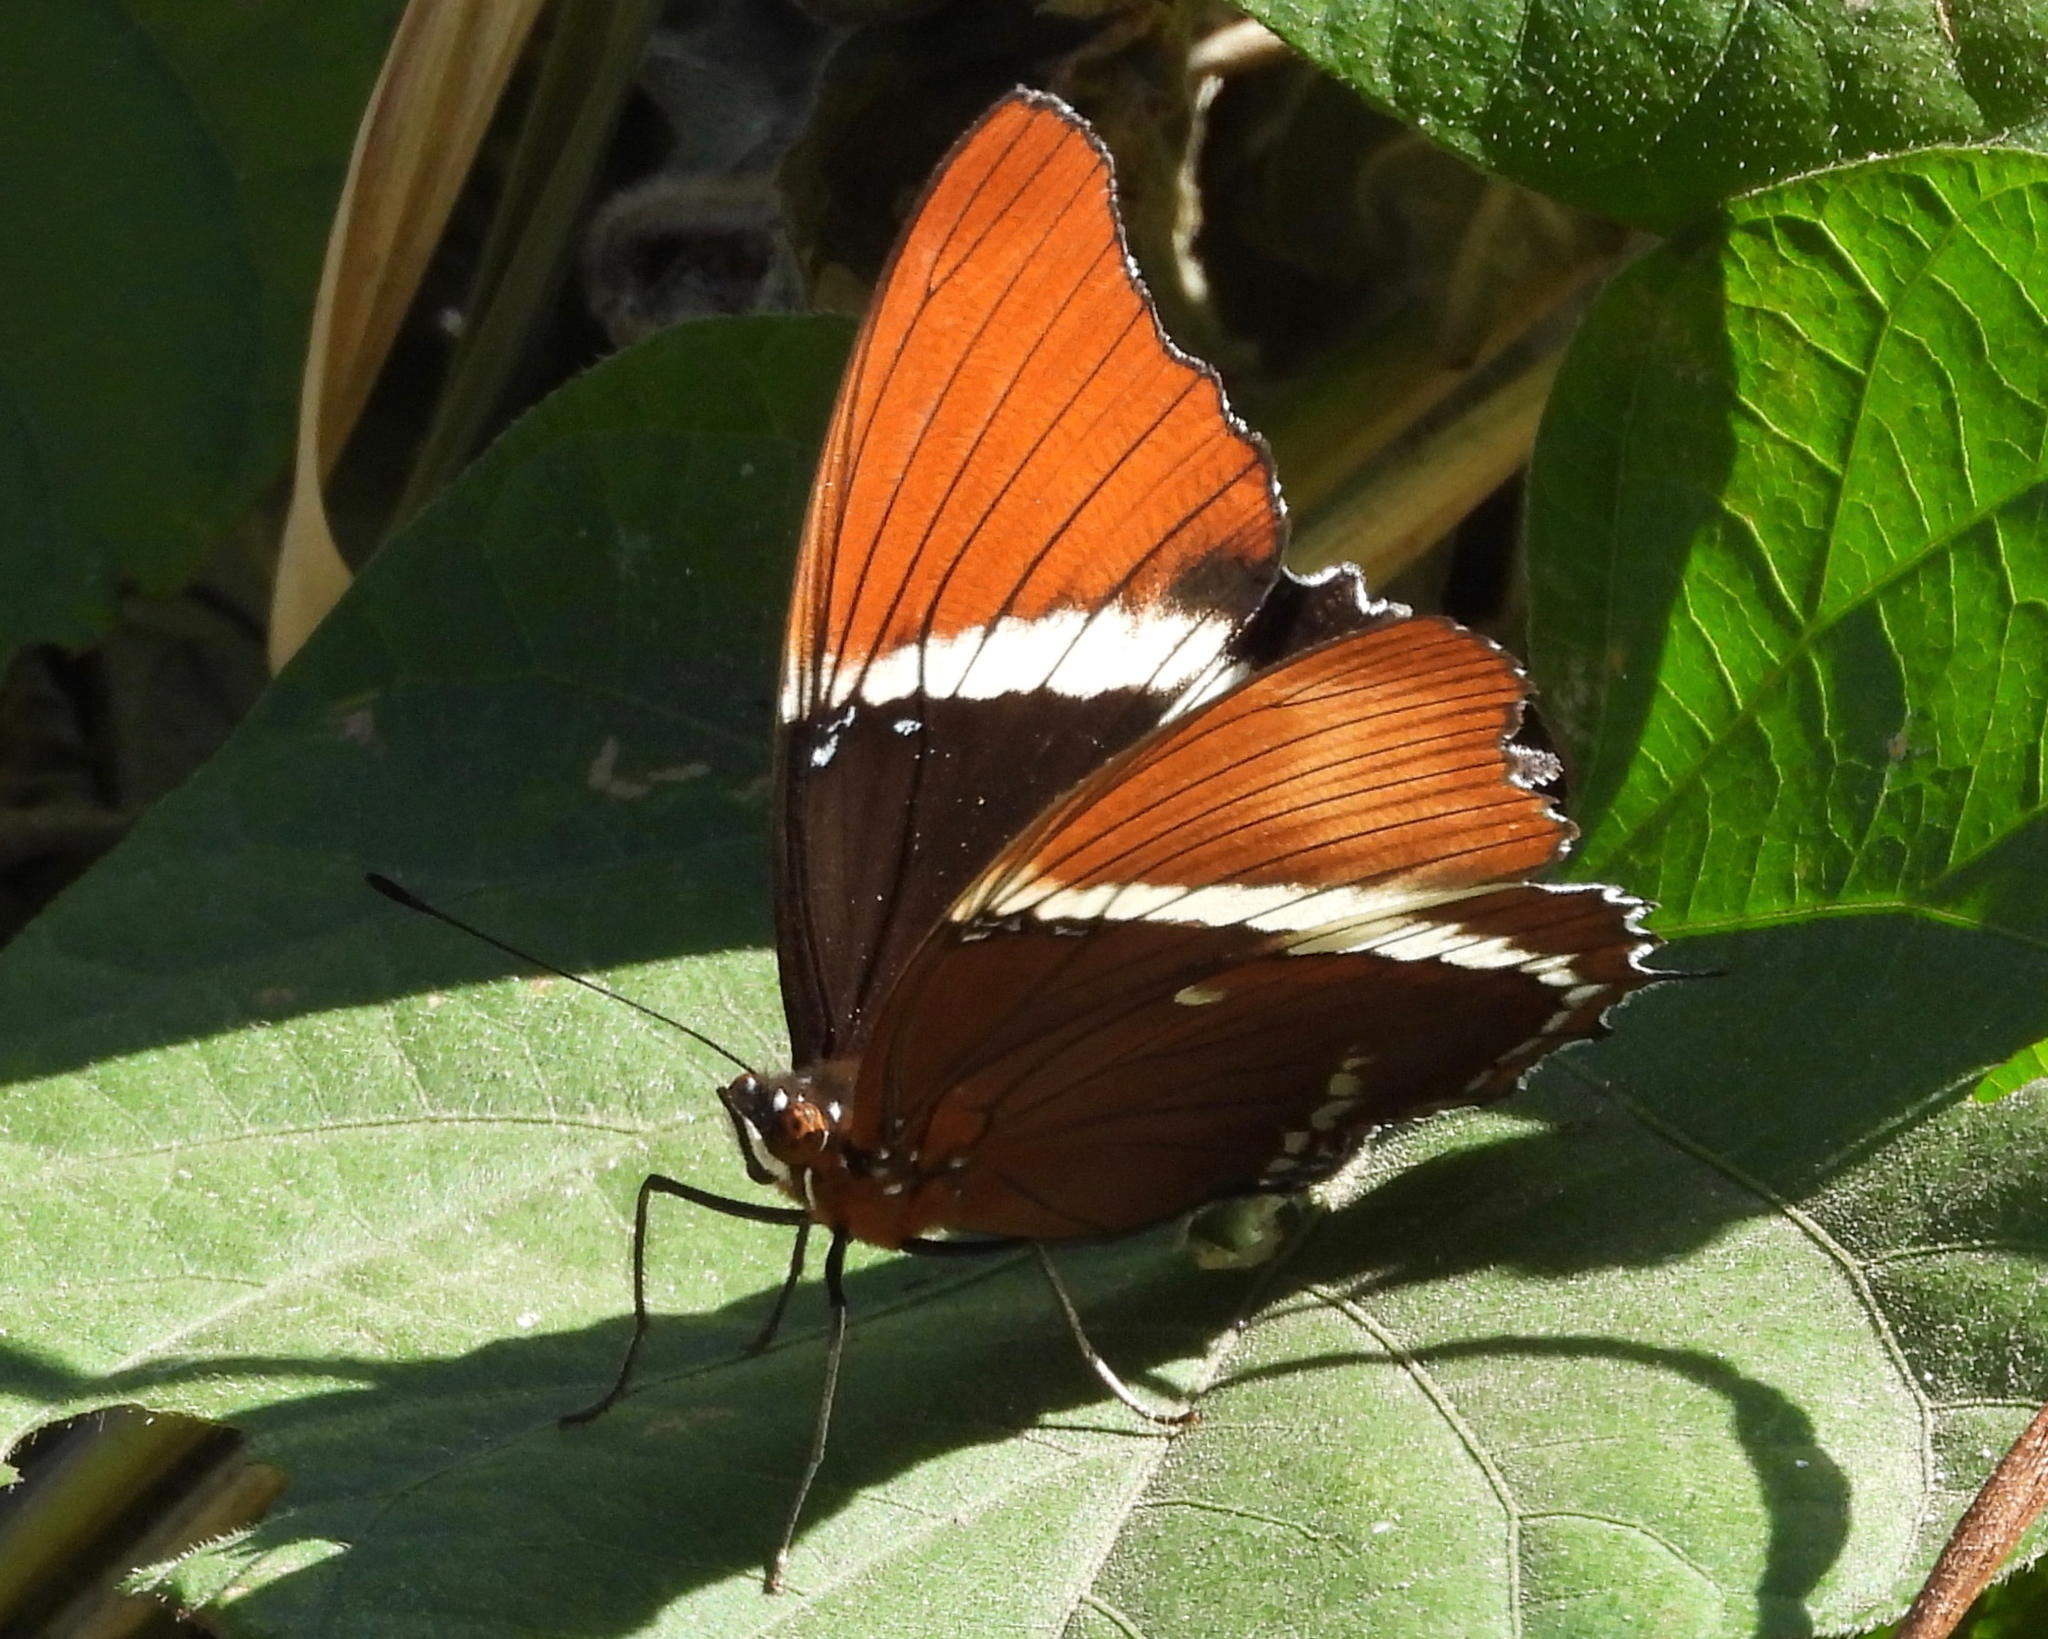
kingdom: Animalia
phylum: Arthropoda
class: Insecta
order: Lepidoptera
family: Nymphalidae
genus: Siproeta
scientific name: Siproeta epaphus
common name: Rusty-tipped page
